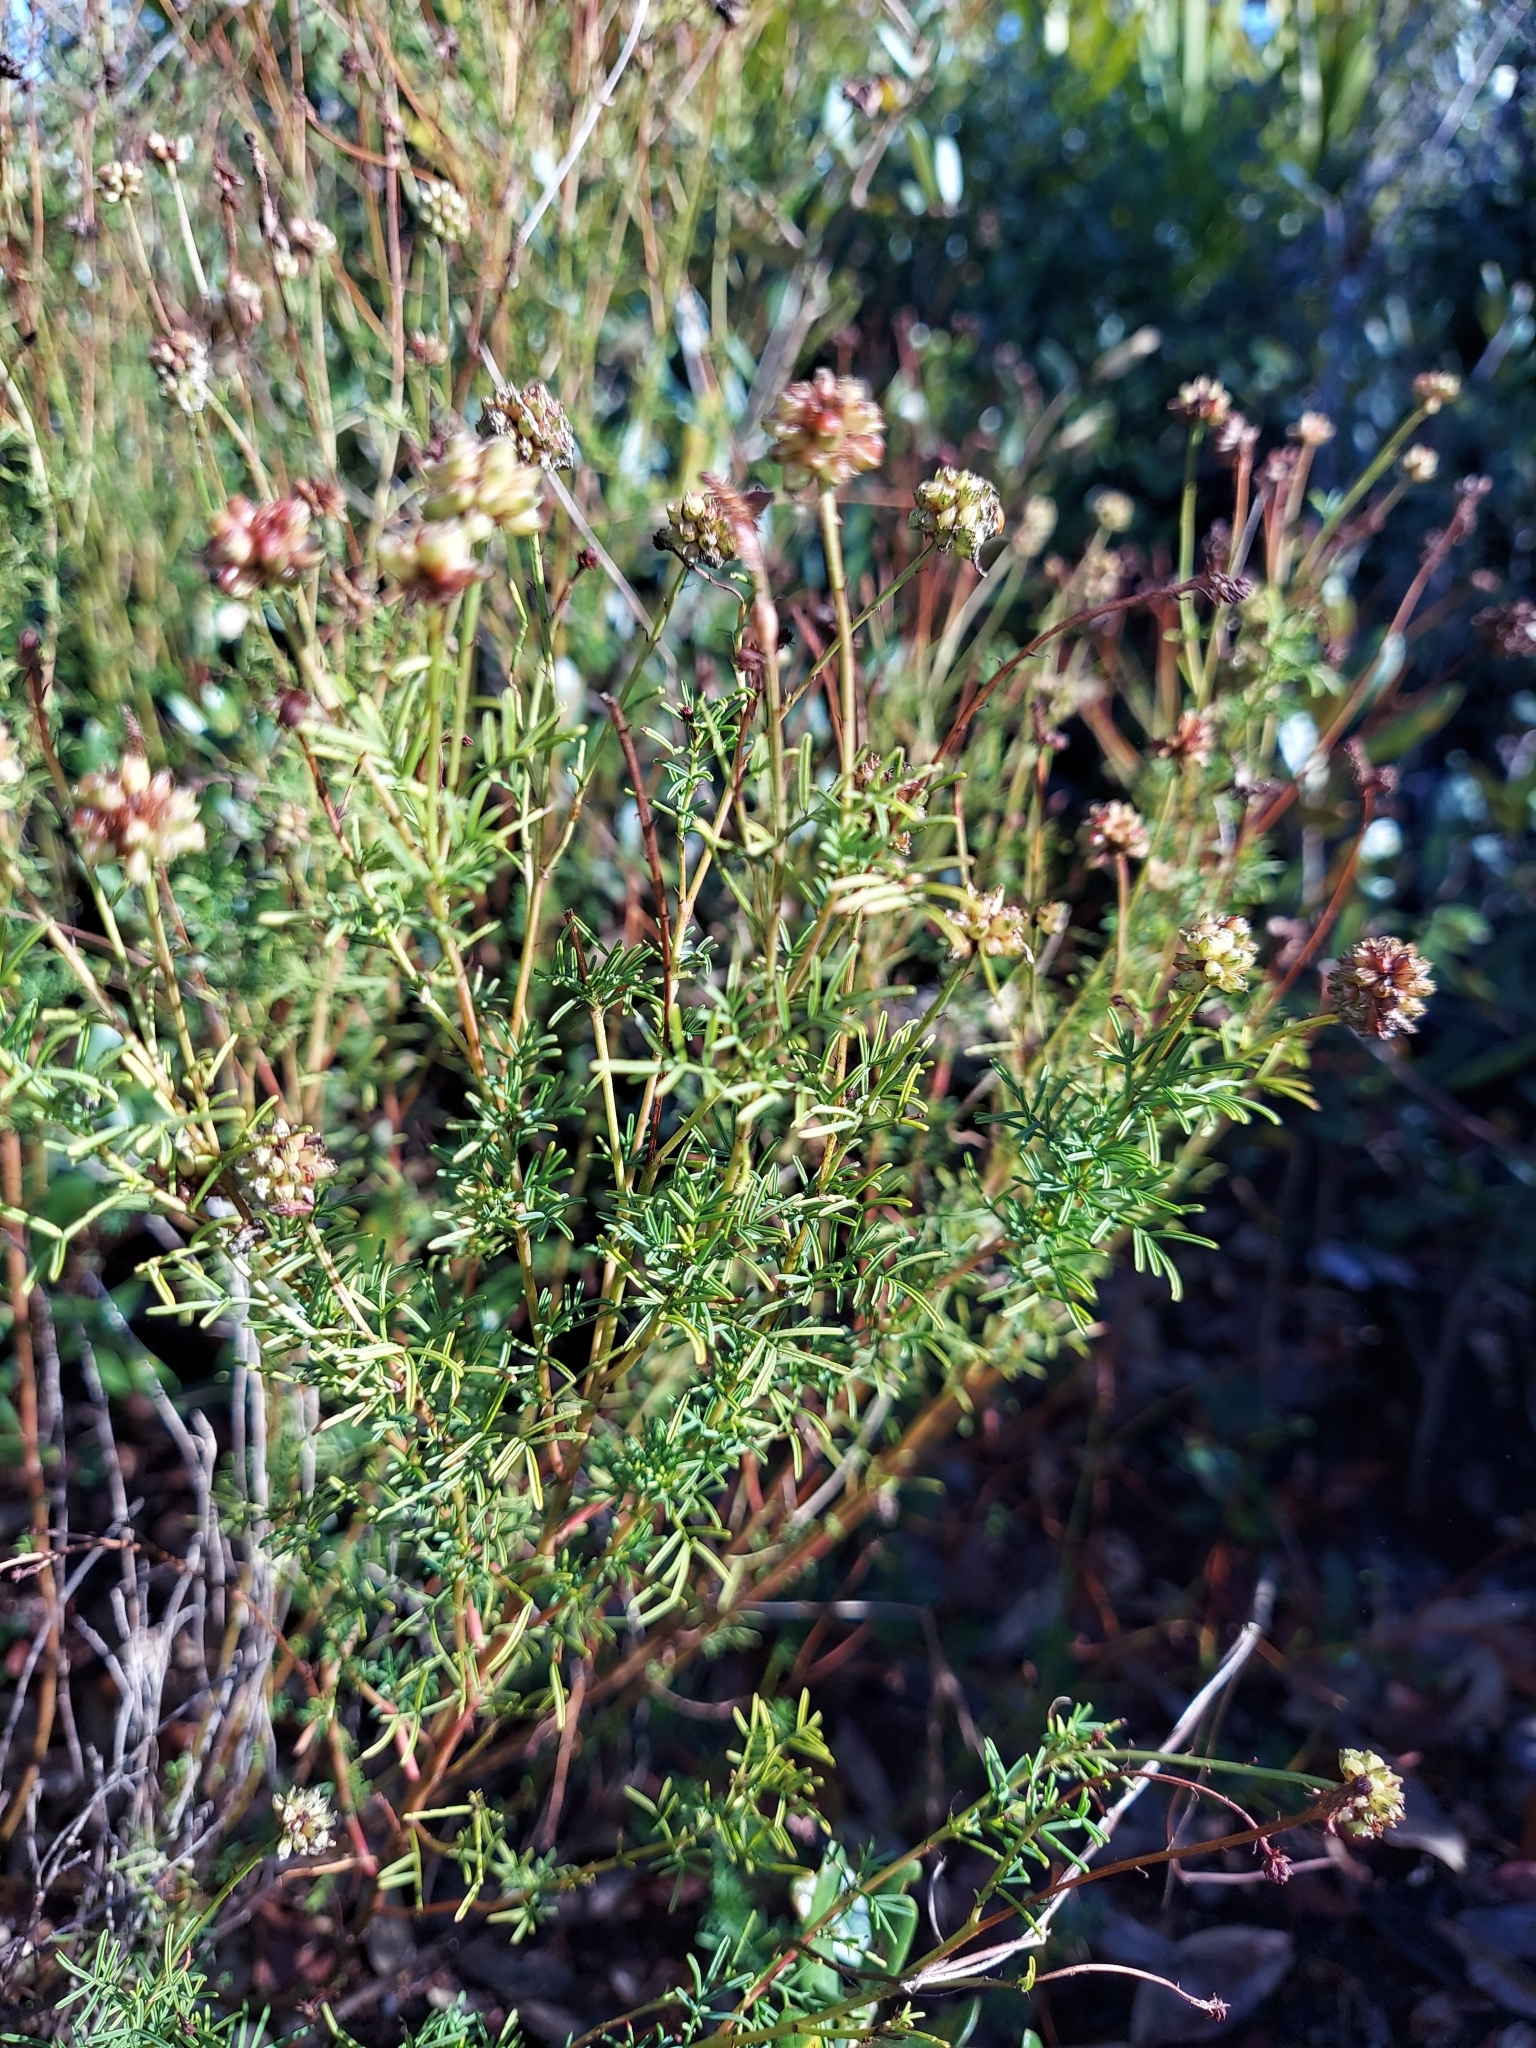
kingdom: Plantae
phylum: Tracheophyta
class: Magnoliopsida
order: Fabales
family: Fabaceae
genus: Dalea
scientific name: Dalea pinnata
